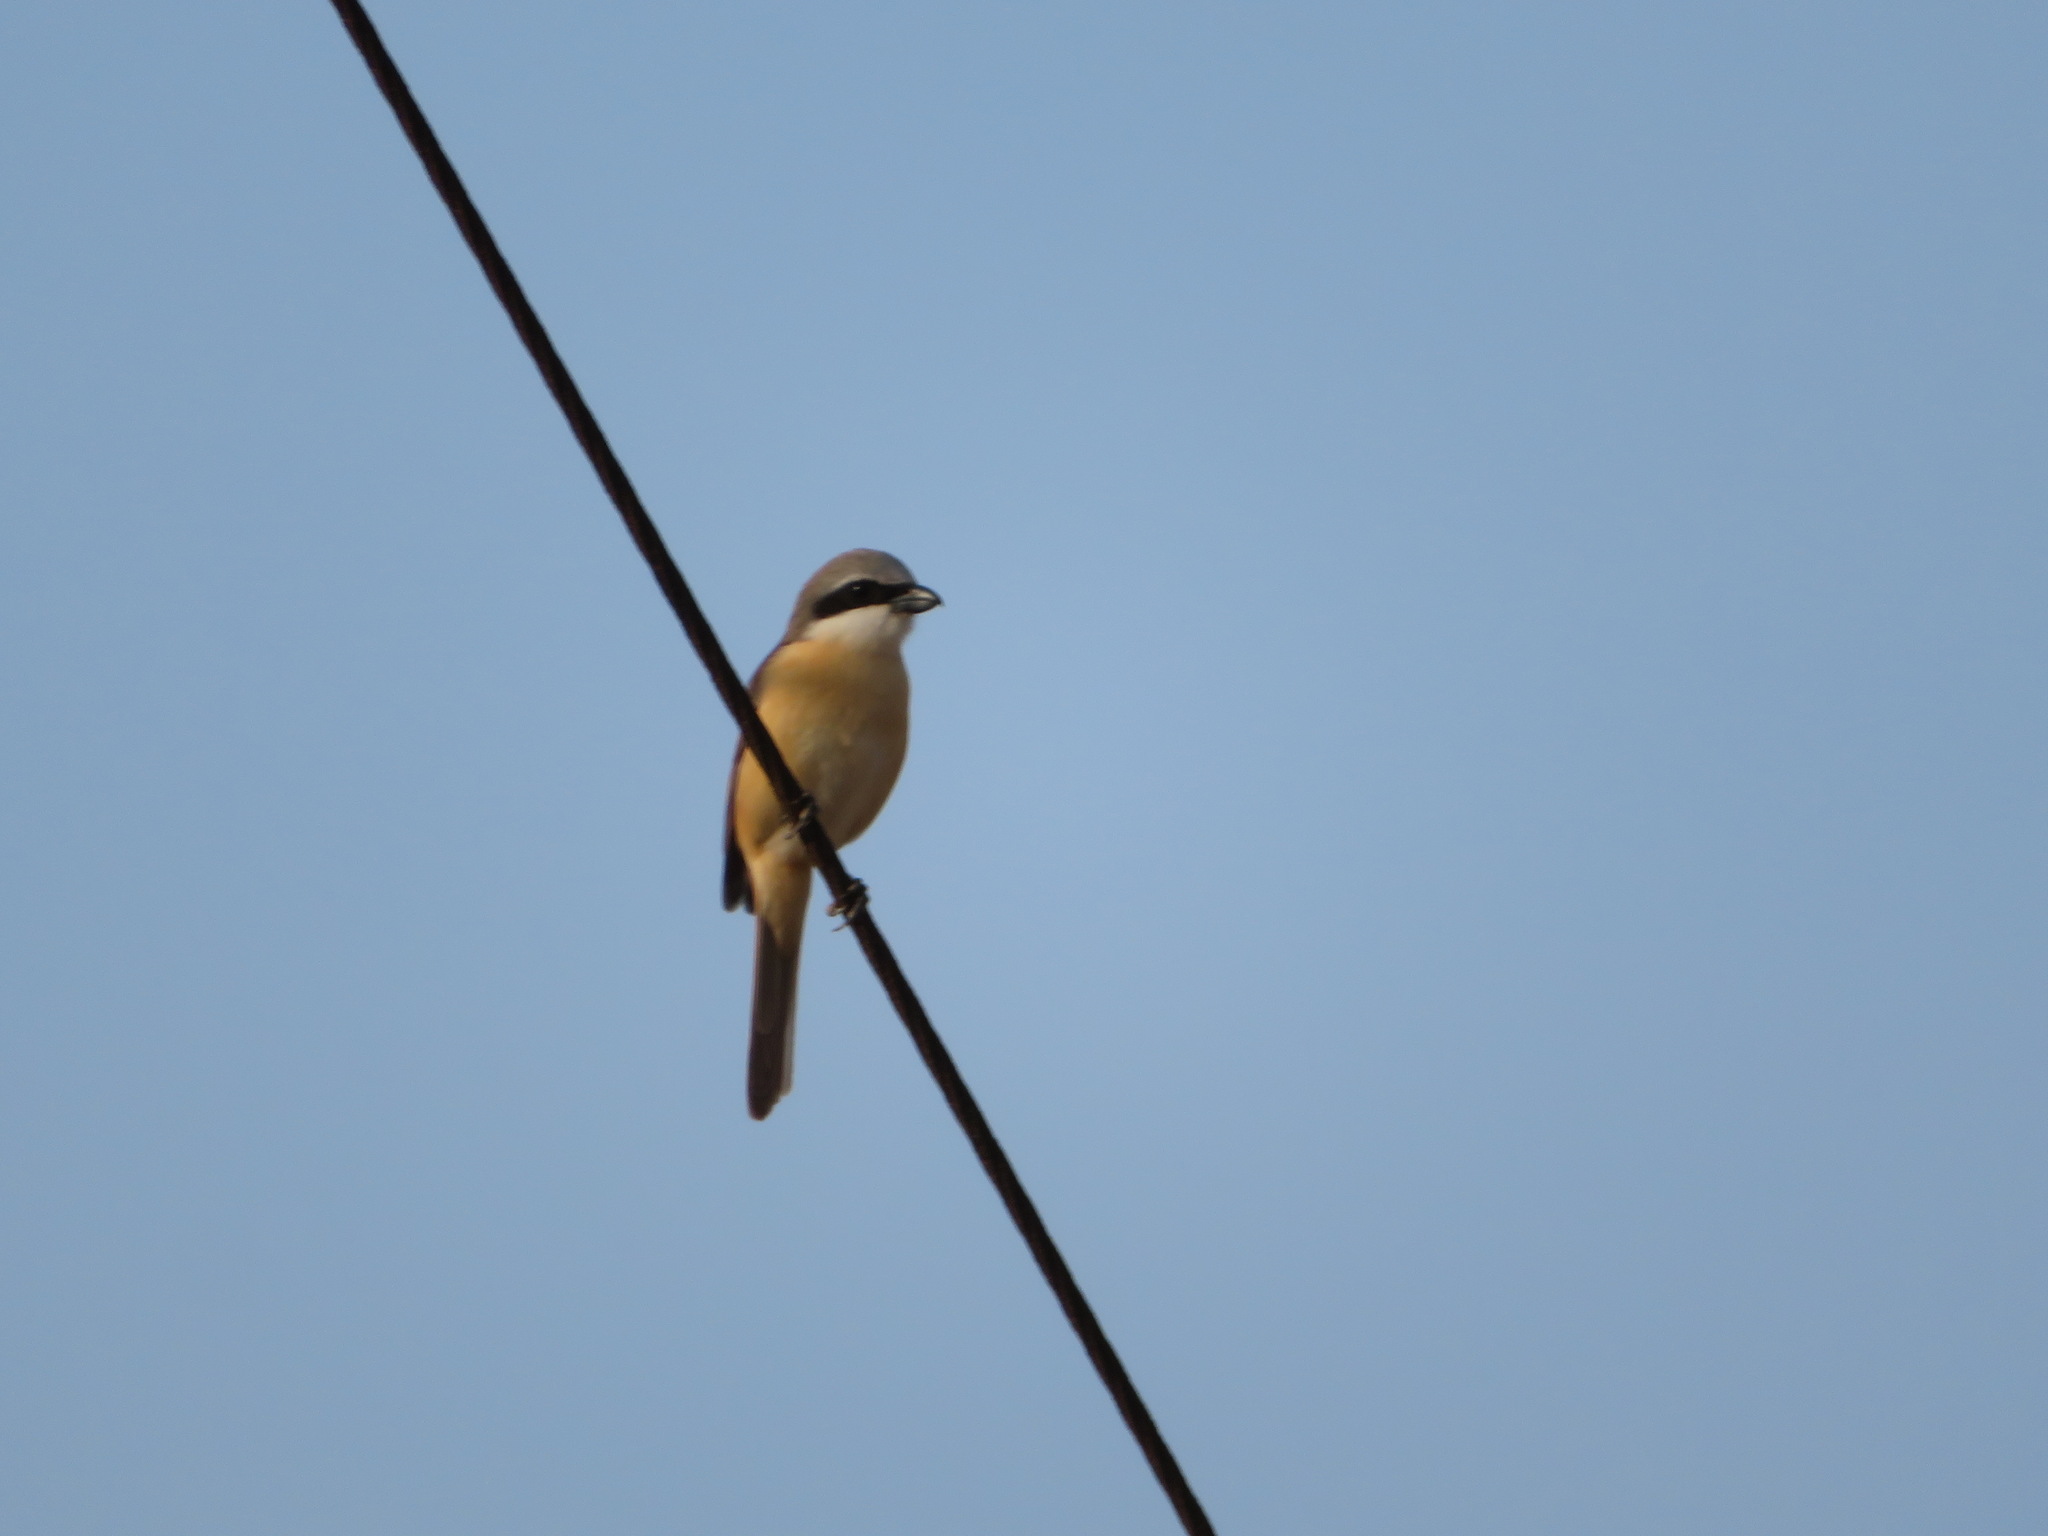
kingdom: Animalia
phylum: Chordata
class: Aves
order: Passeriformes
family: Laniidae
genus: Lanius
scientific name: Lanius cristatus
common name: Brown shrike
